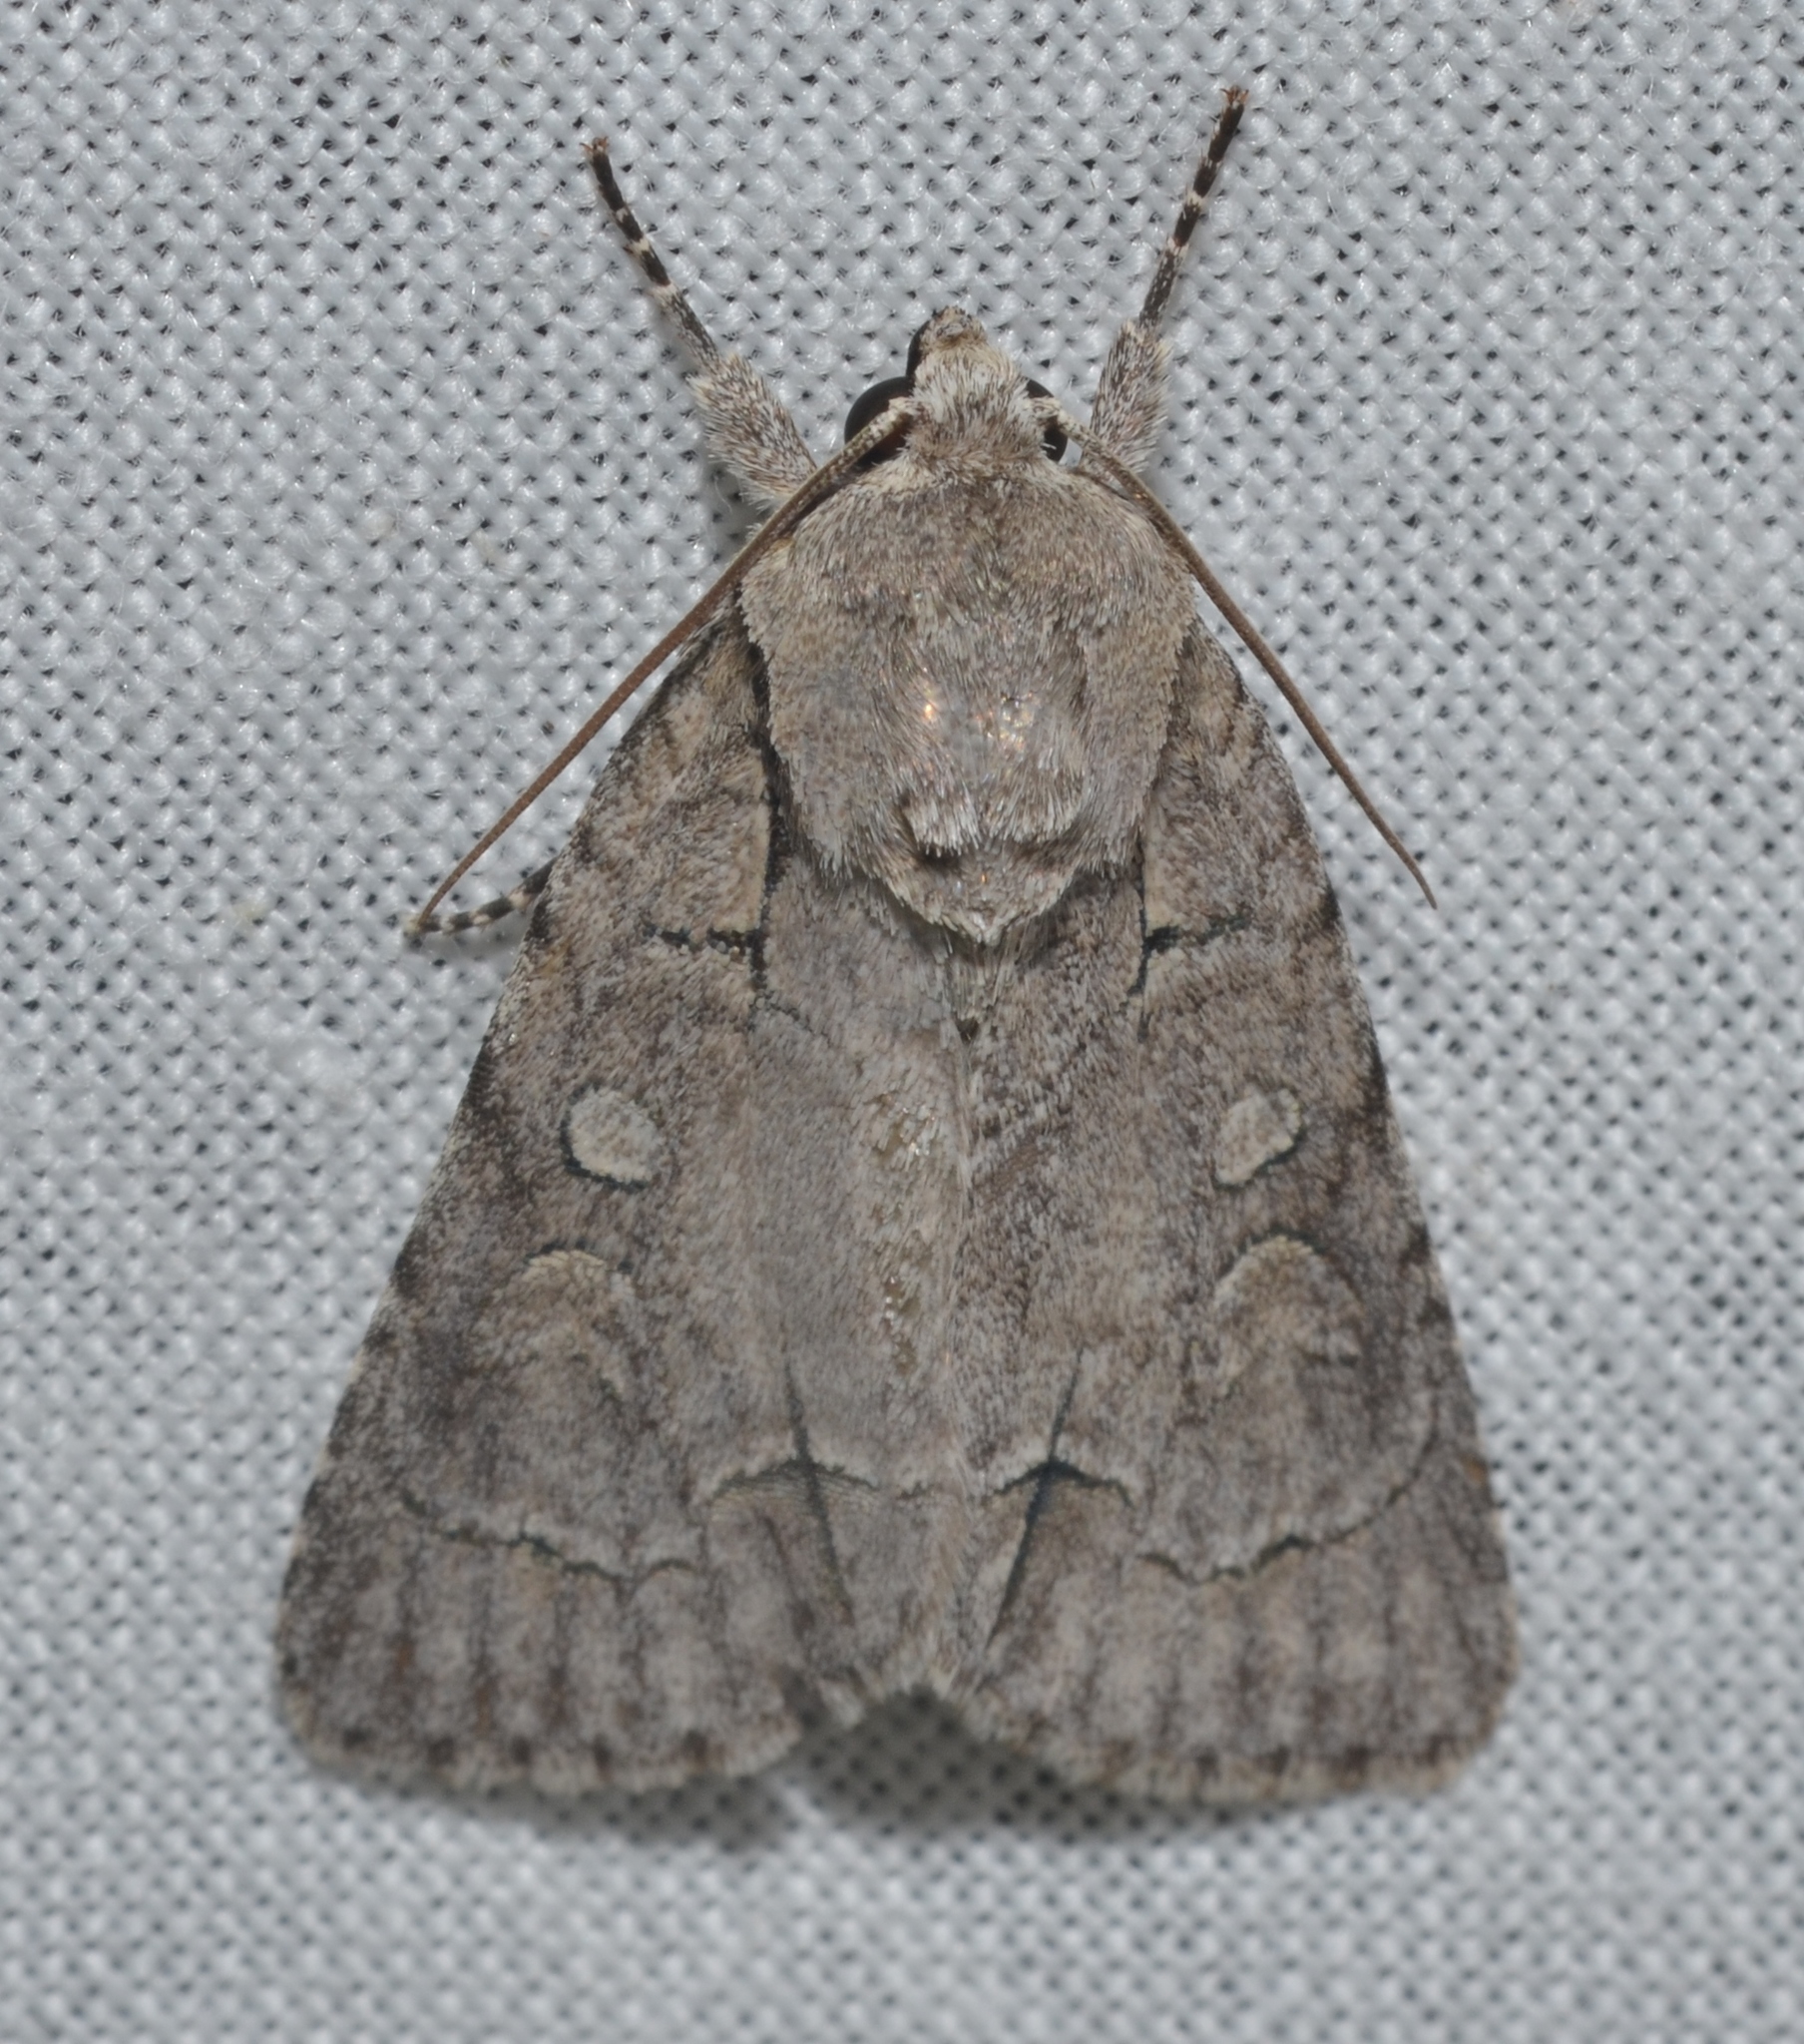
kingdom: Animalia
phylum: Arthropoda
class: Insecta
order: Lepidoptera
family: Noctuidae
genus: Acronicta
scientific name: Acronicta radcliffei
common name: Radcliffe's dagger
